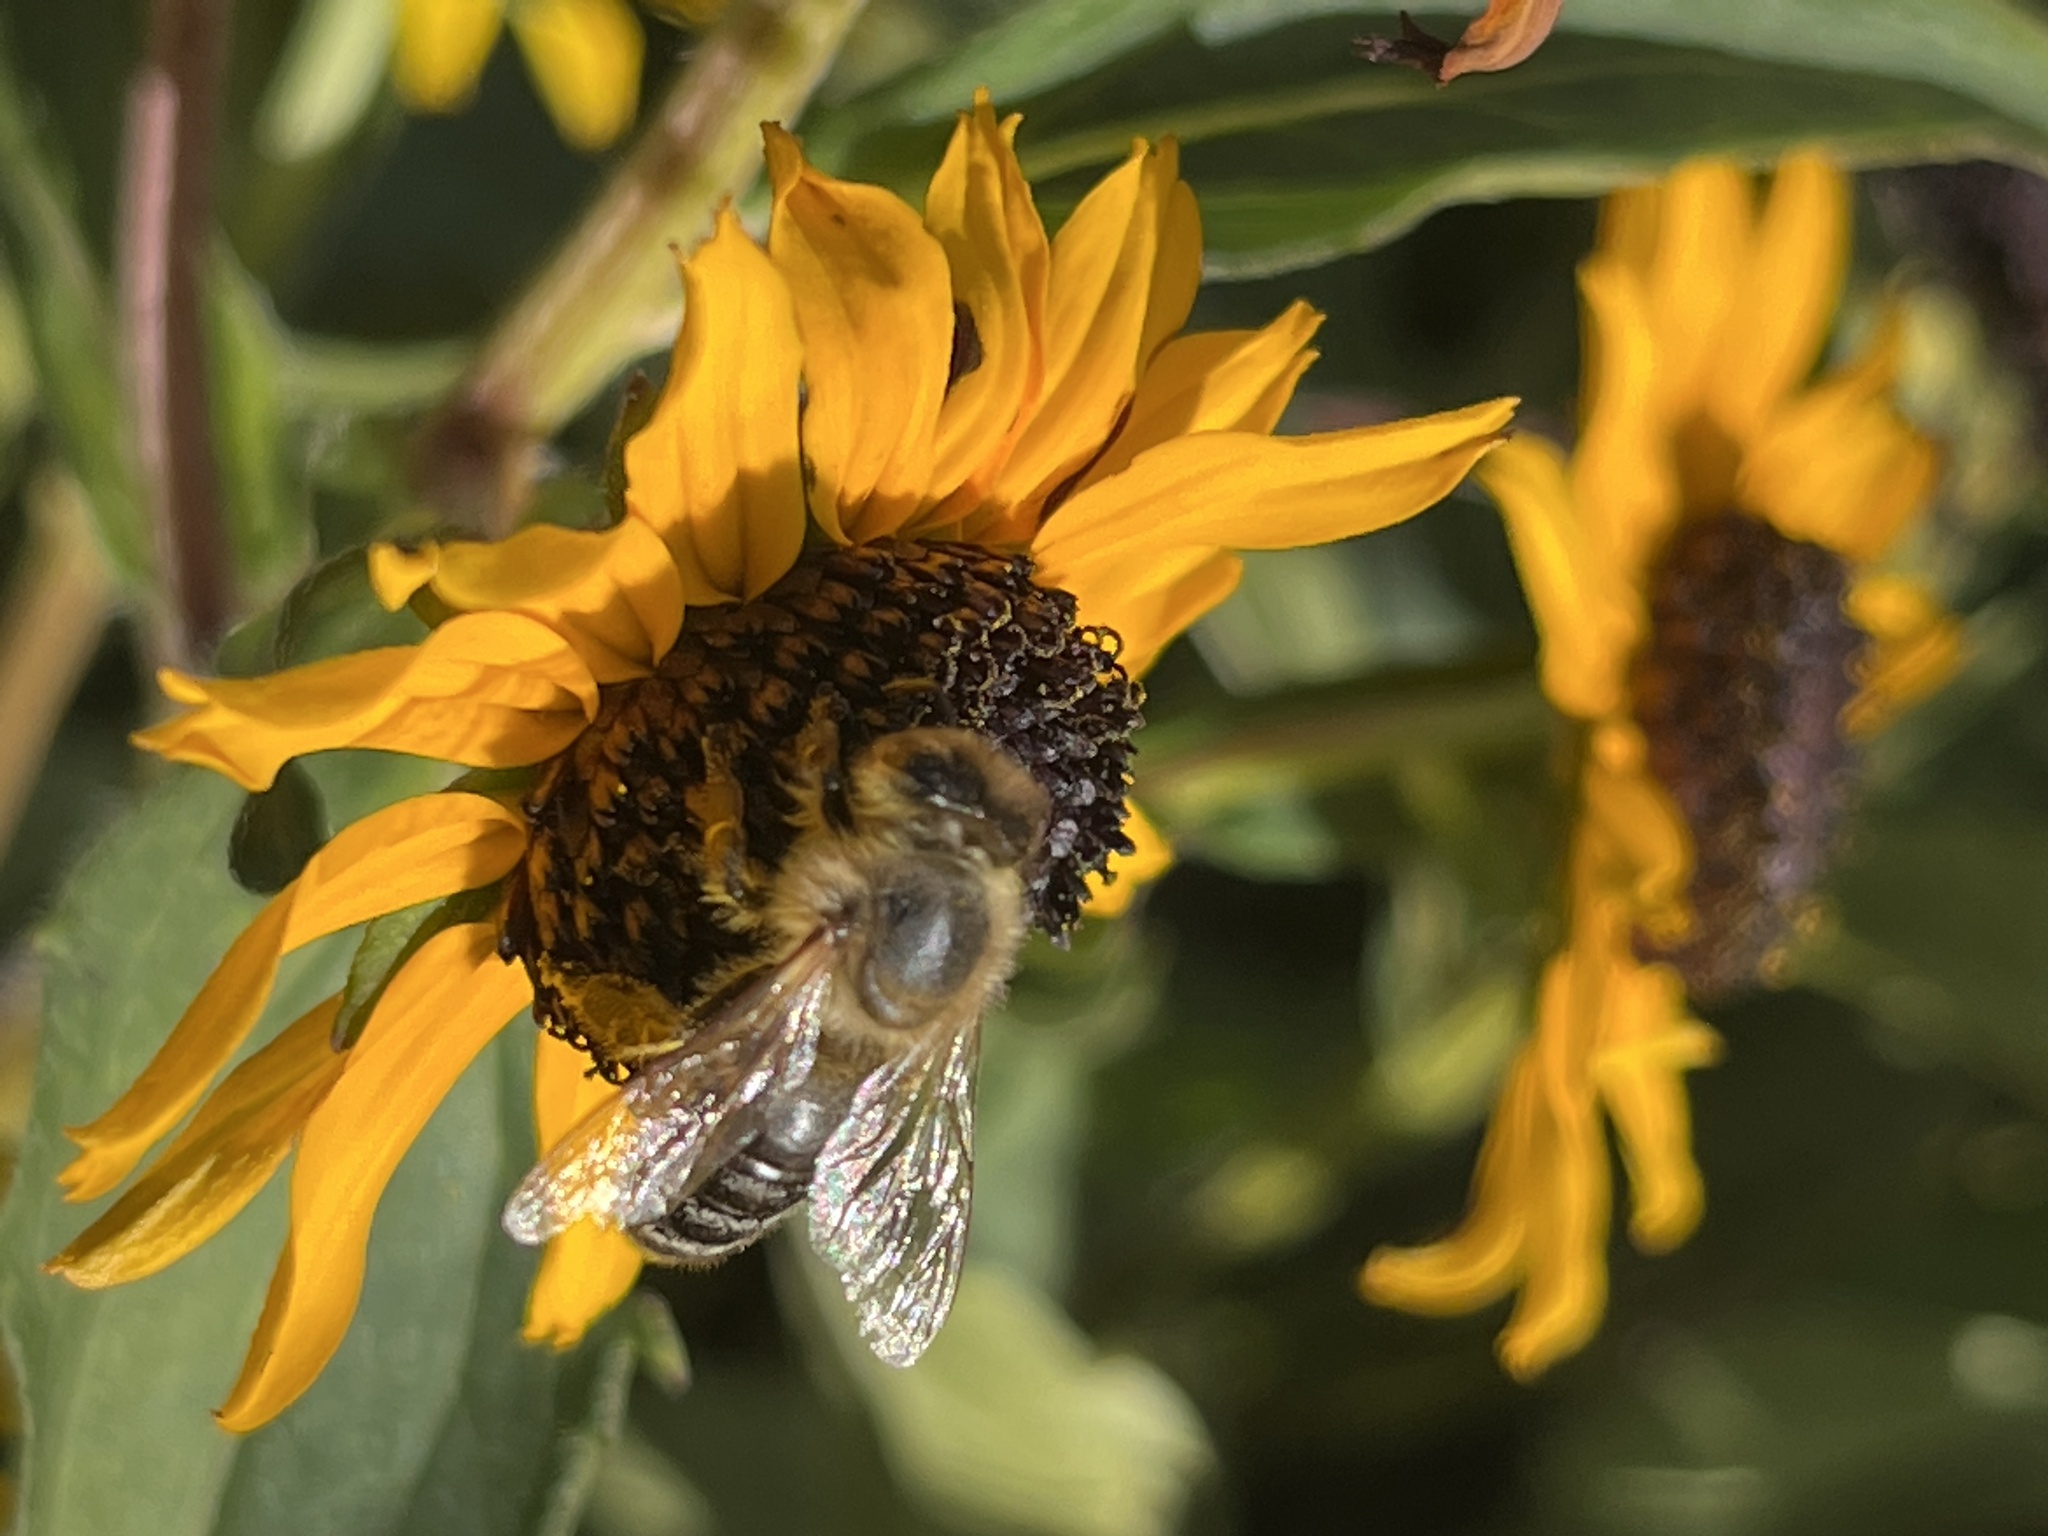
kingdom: Animalia
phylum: Arthropoda
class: Insecta
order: Hymenoptera
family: Apidae
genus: Apis
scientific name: Apis mellifera
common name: Honey bee
